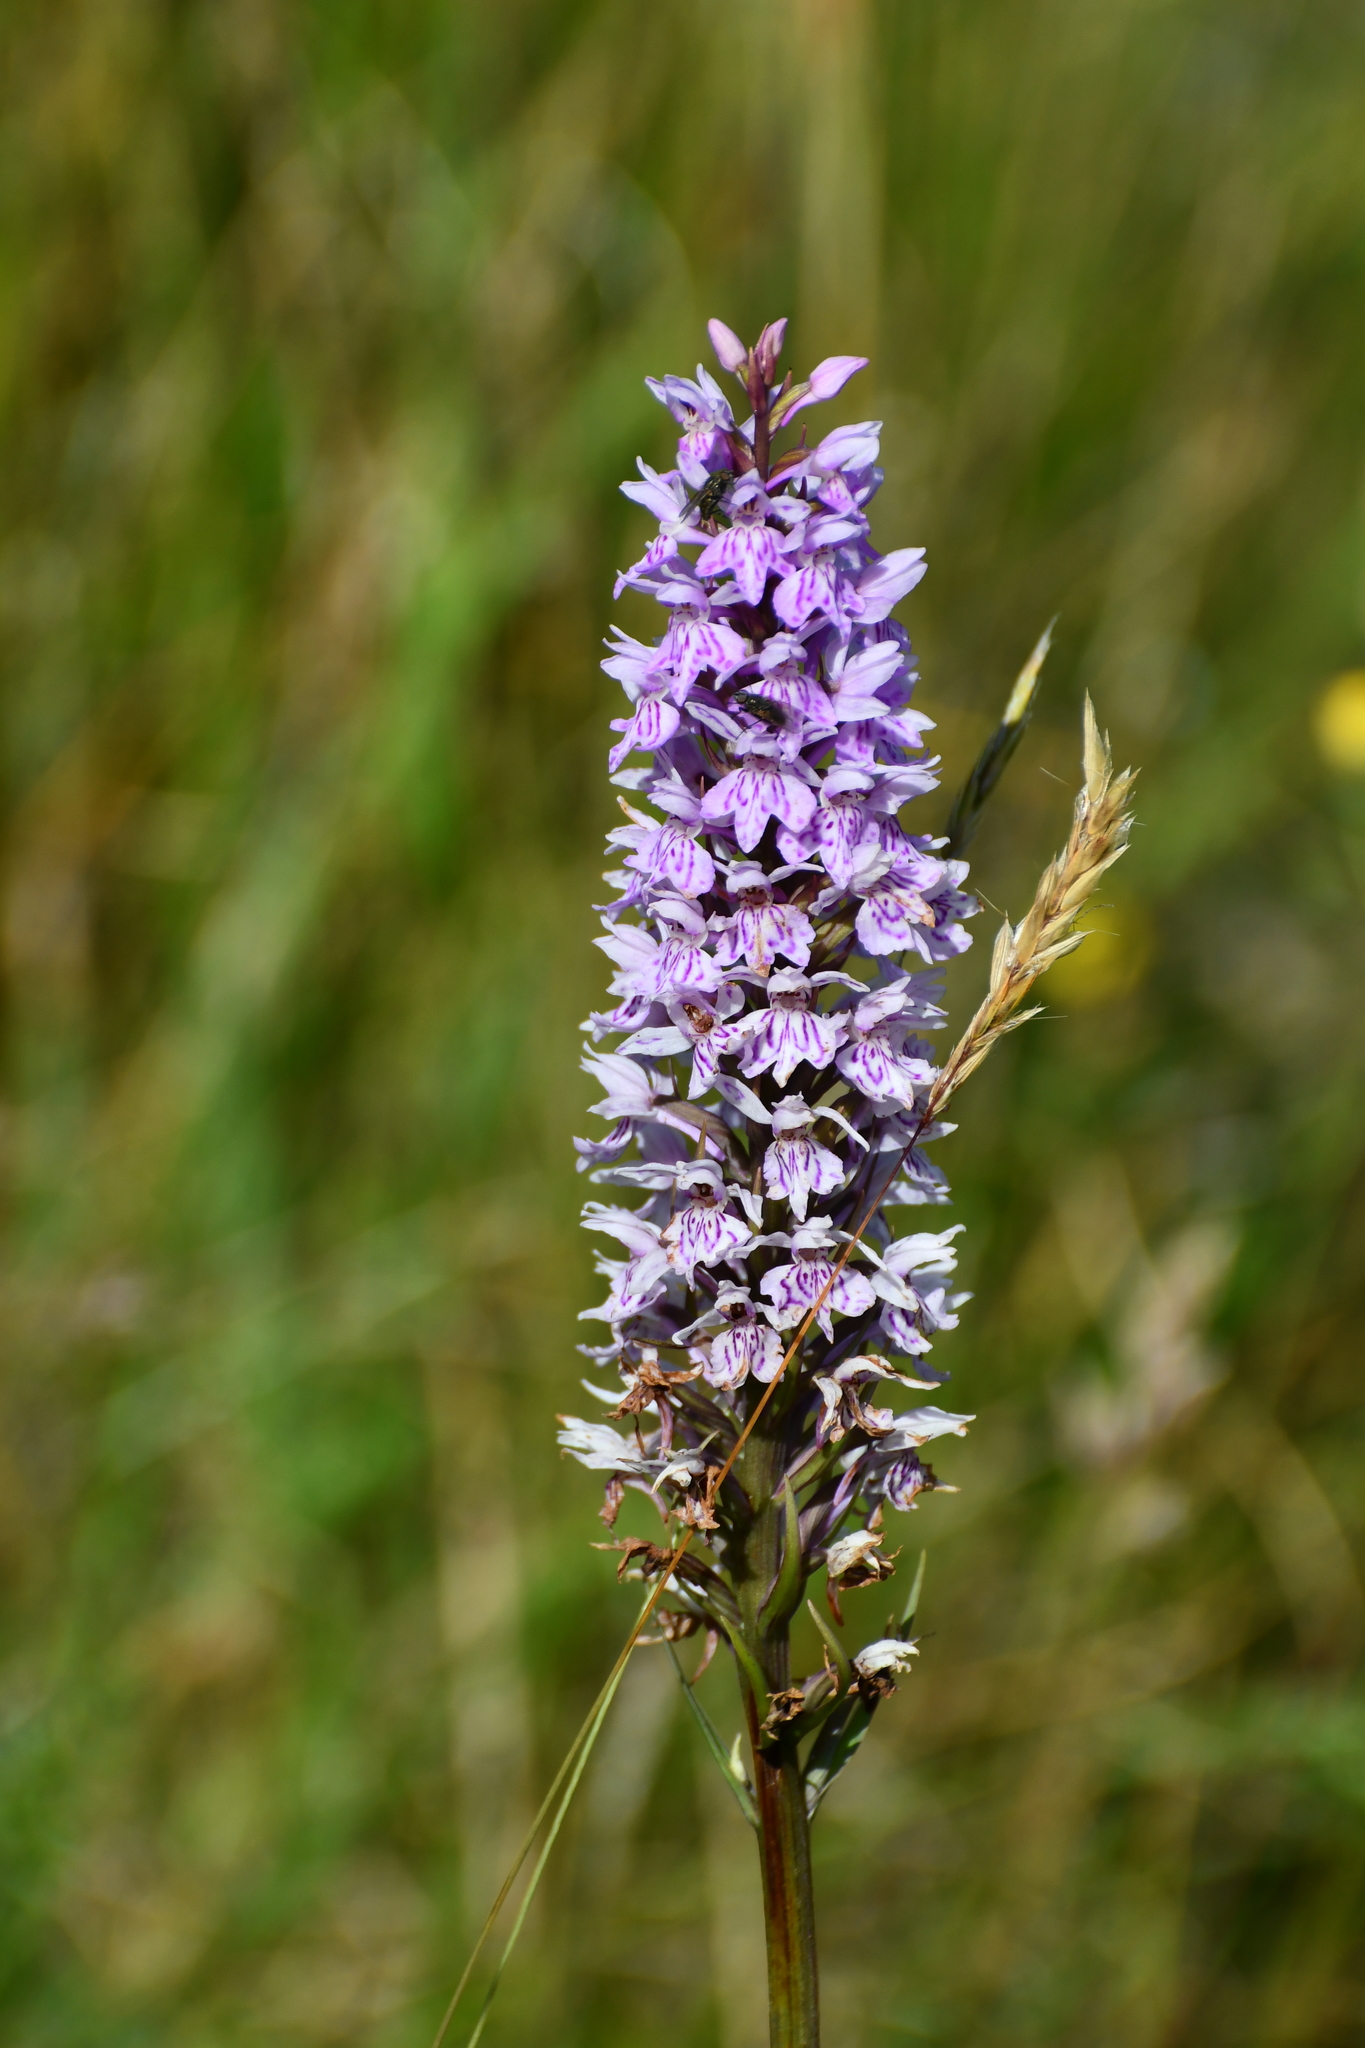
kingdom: Plantae
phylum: Tracheophyta
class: Liliopsida
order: Asparagales
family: Orchidaceae
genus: Dactylorhiza
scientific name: Dactylorhiza maculata
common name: Heath spotted-orchid
